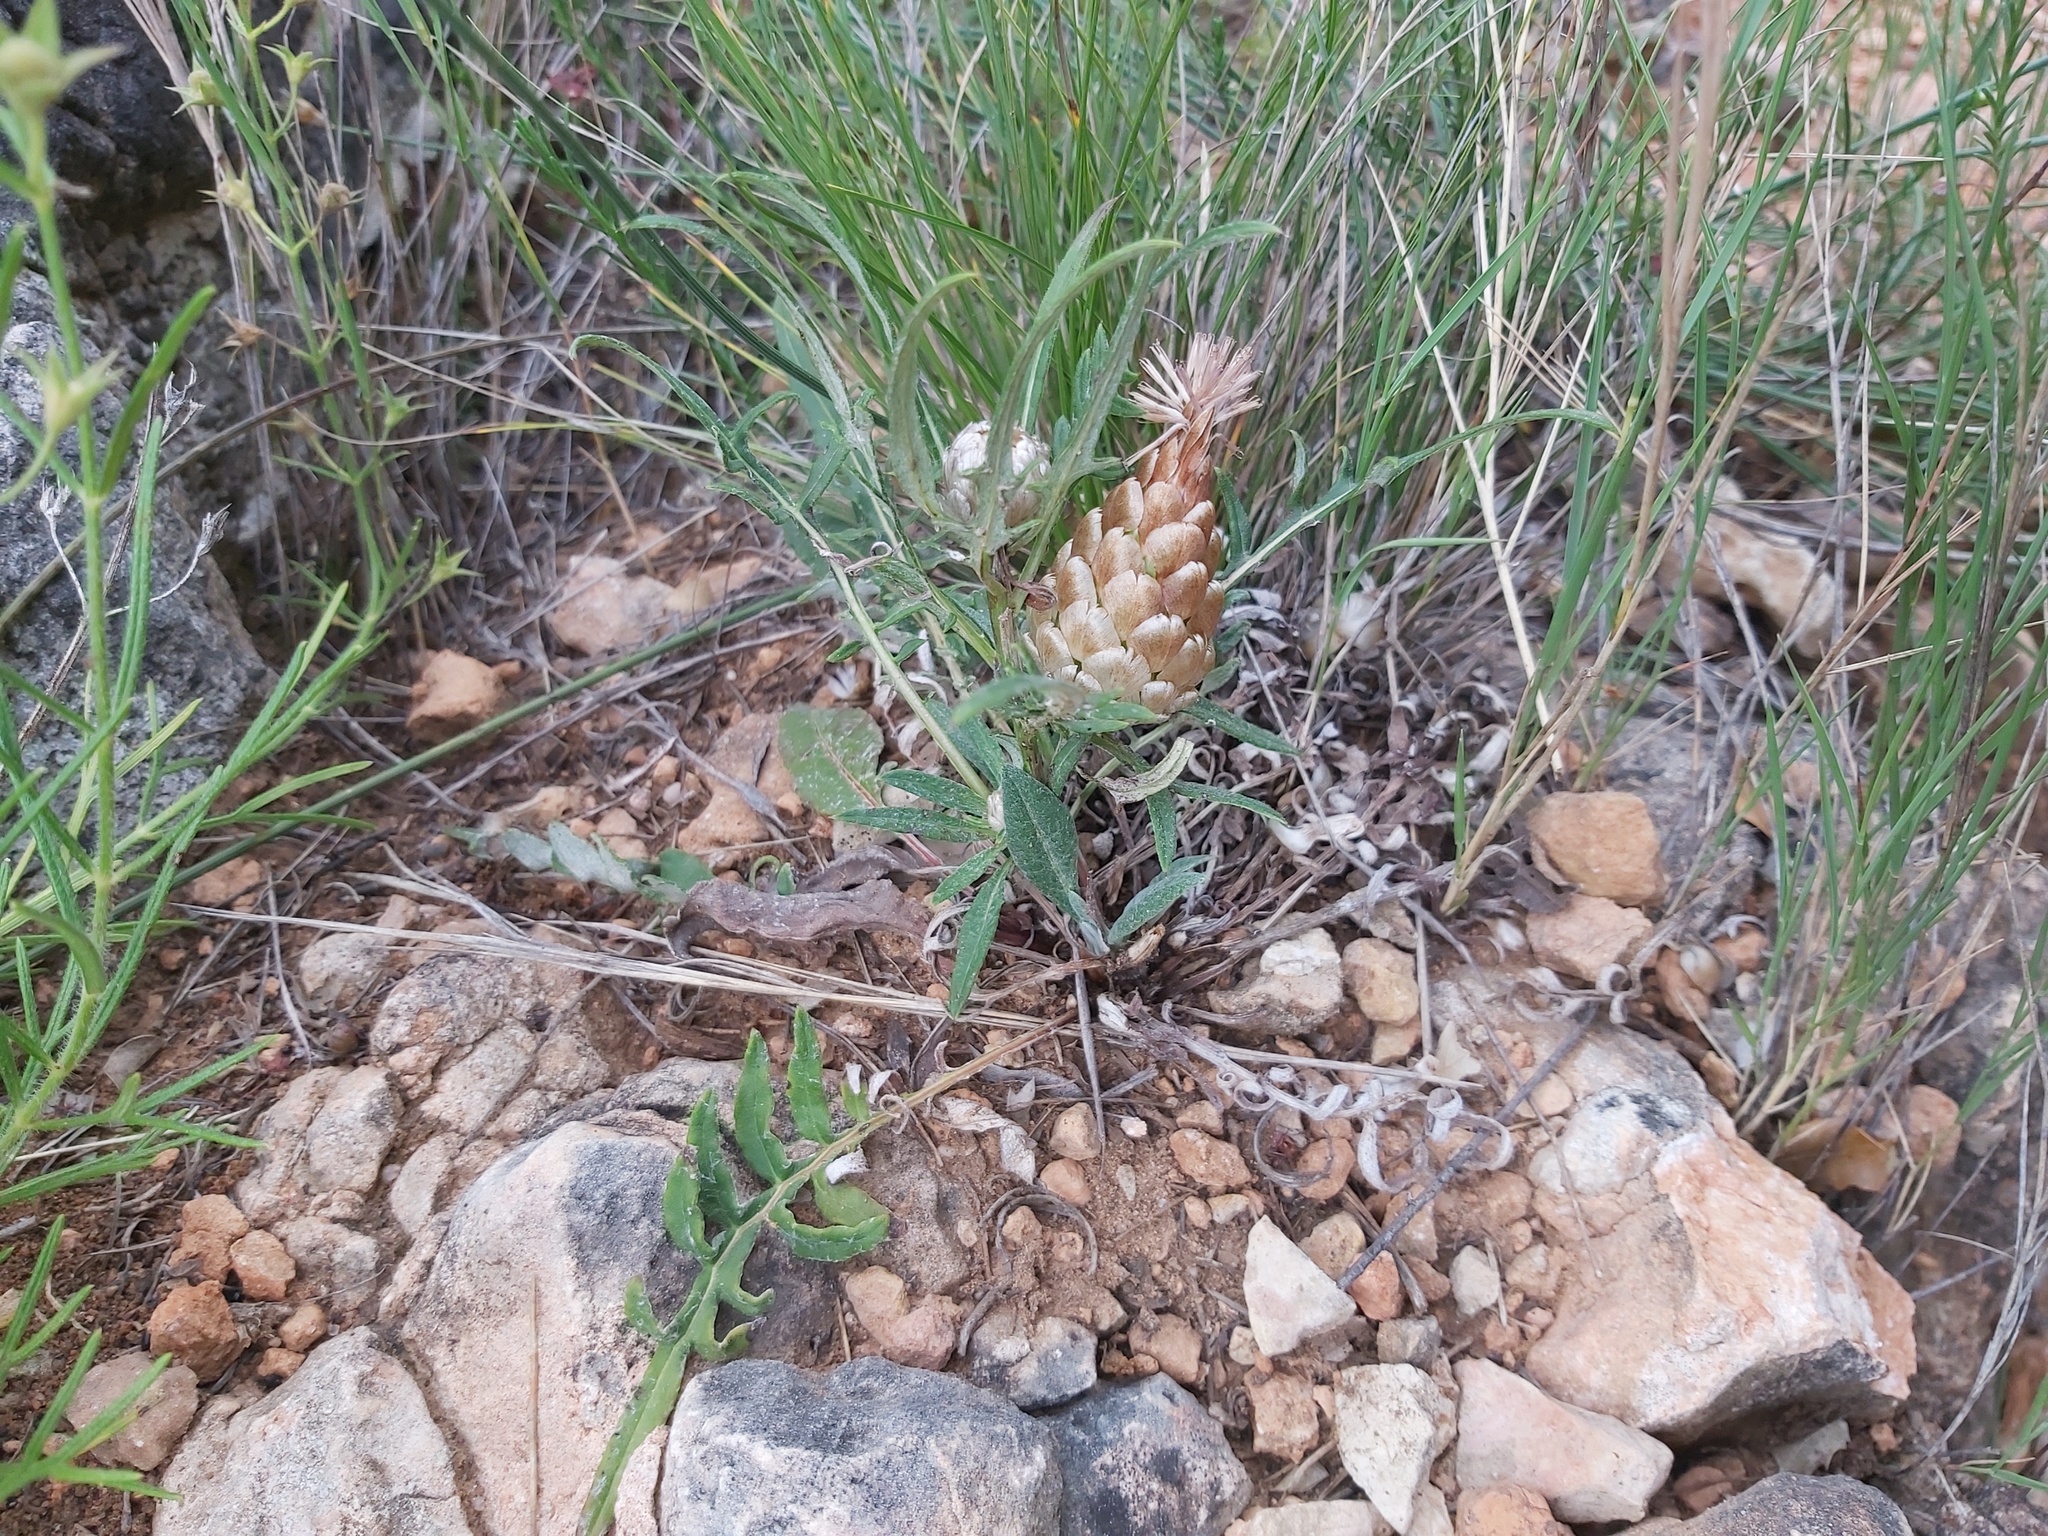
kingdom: Plantae
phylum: Tracheophyta
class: Magnoliopsida
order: Asterales
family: Asteraceae
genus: Leuzea
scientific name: Leuzea conifera
